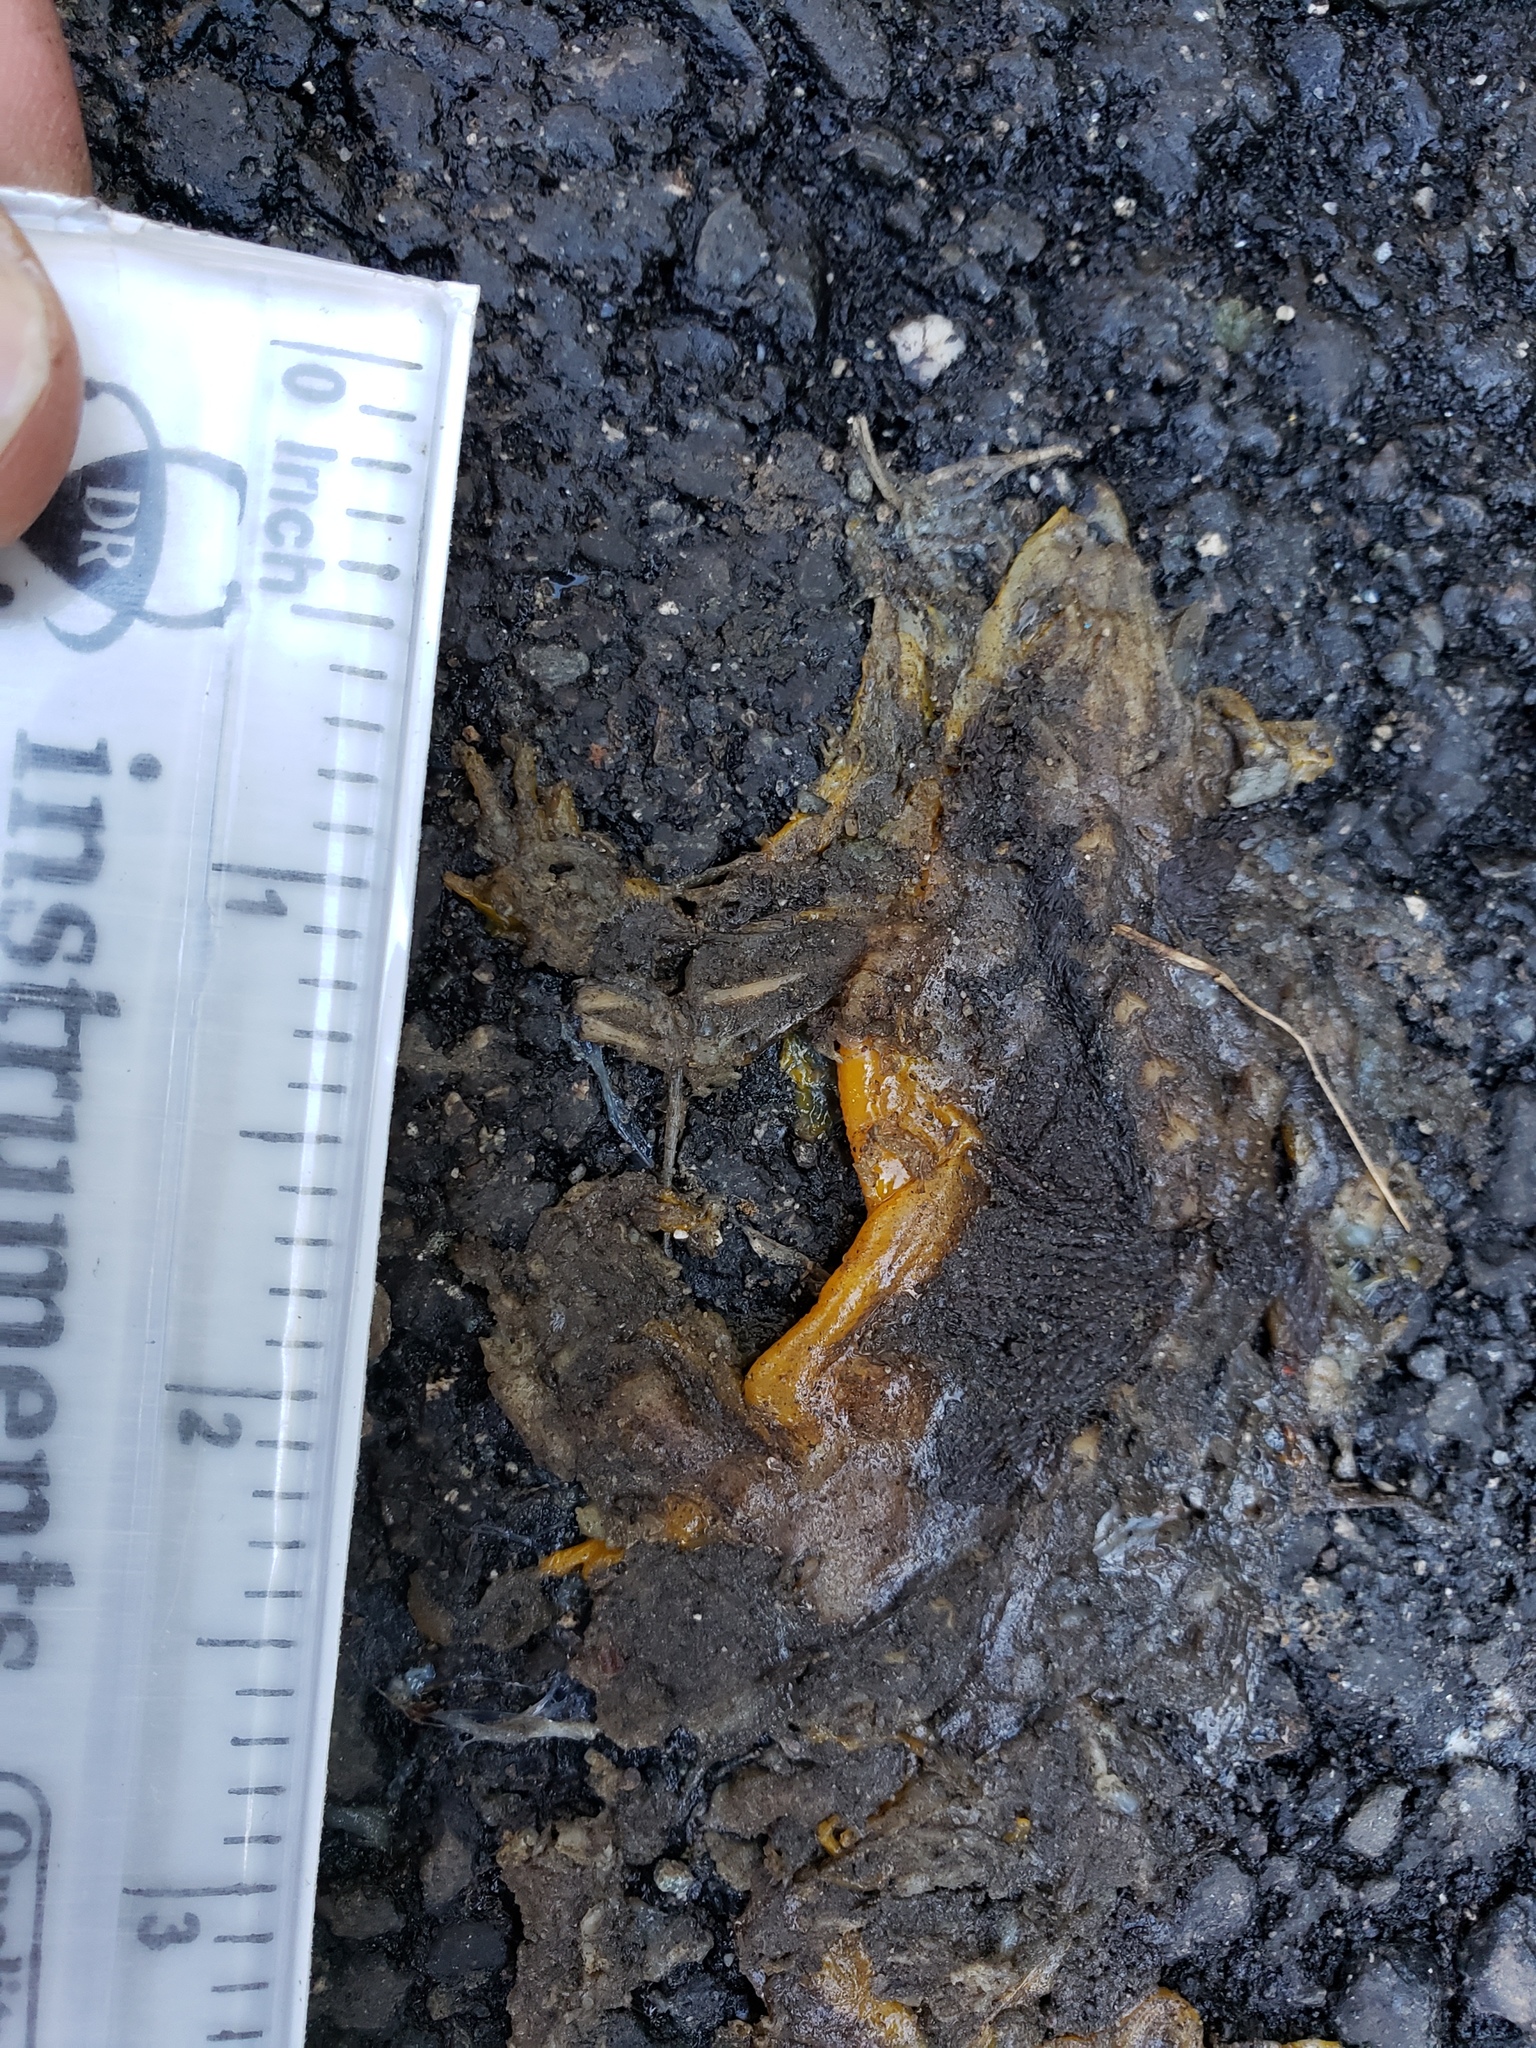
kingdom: Animalia
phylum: Chordata
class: Amphibia
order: Caudata
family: Salamandridae
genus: Taricha
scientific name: Taricha
